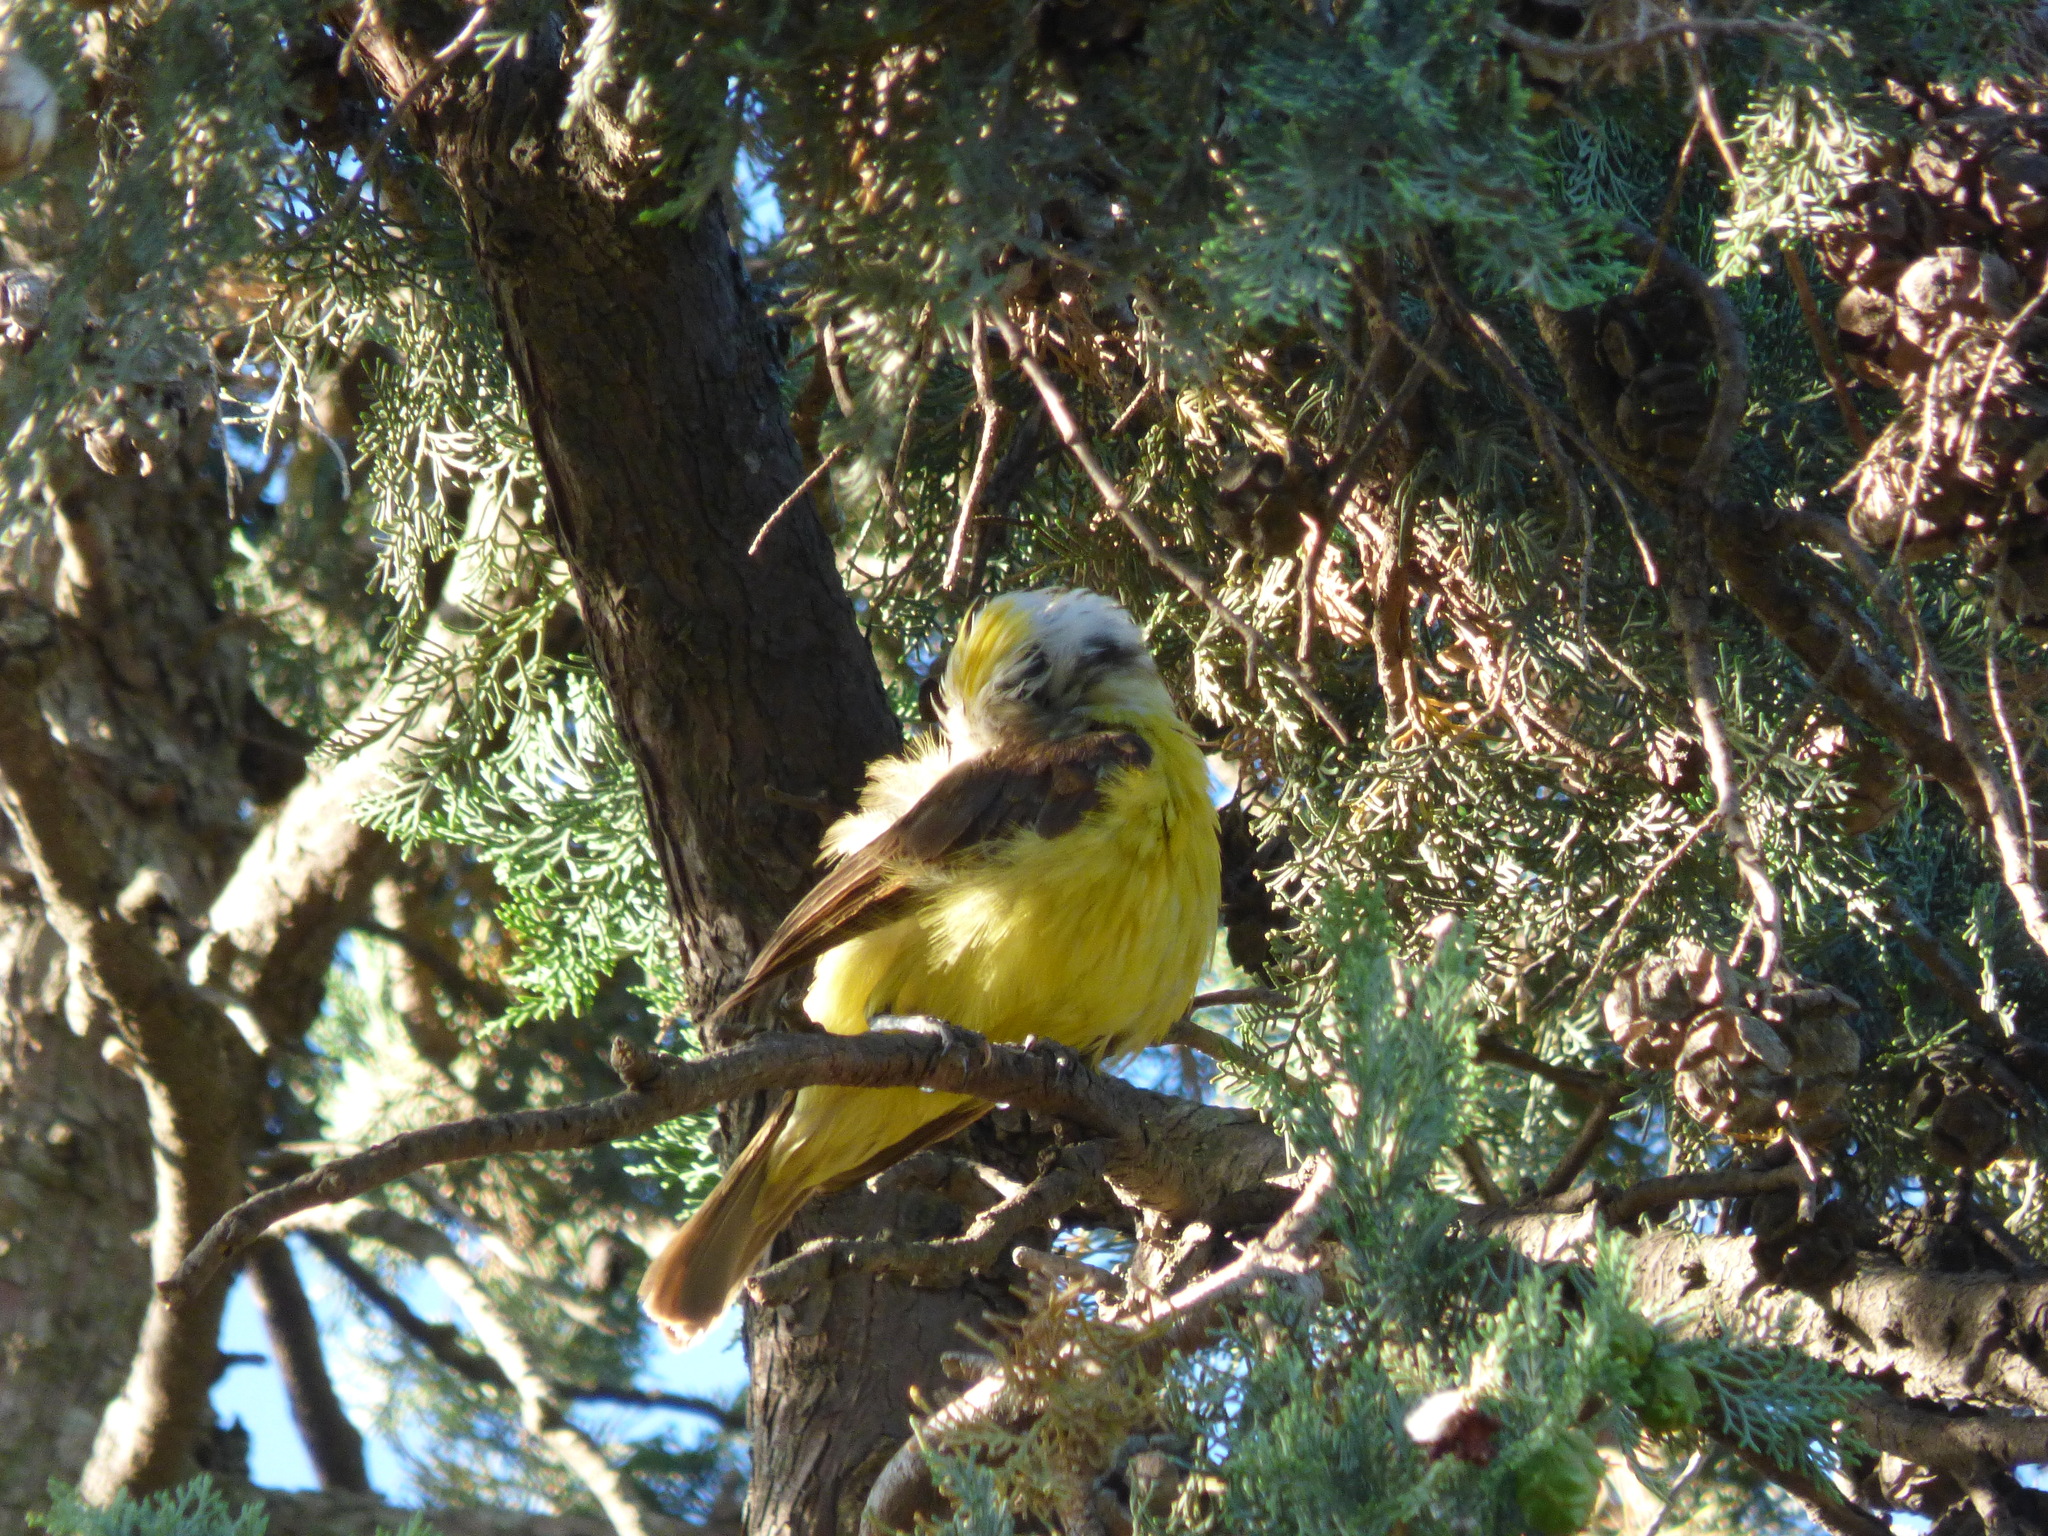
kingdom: Animalia
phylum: Chordata
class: Aves
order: Passeriformes
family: Tyrannidae
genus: Pitangus
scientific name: Pitangus sulphuratus
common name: Great kiskadee
